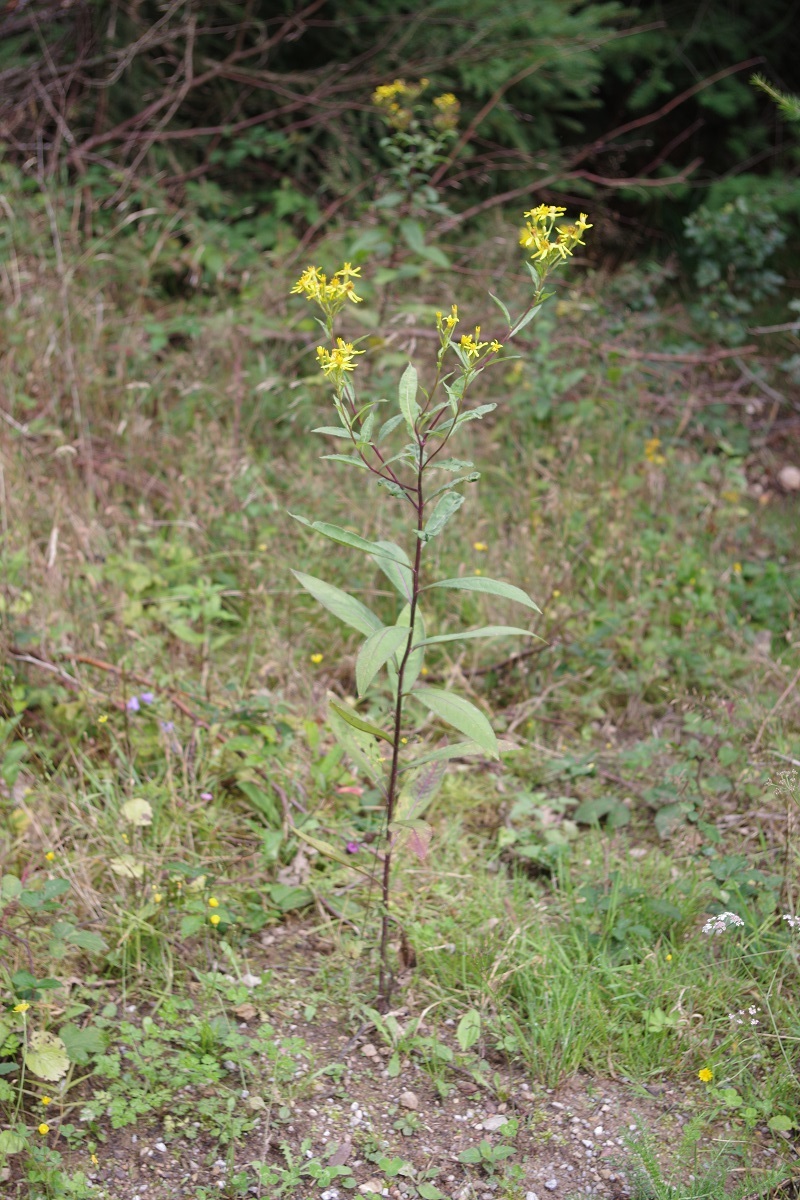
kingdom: Plantae
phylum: Tracheophyta
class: Magnoliopsida
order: Asterales
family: Asteraceae
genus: Senecio
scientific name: Senecio ovatus
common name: Wood ragwort
